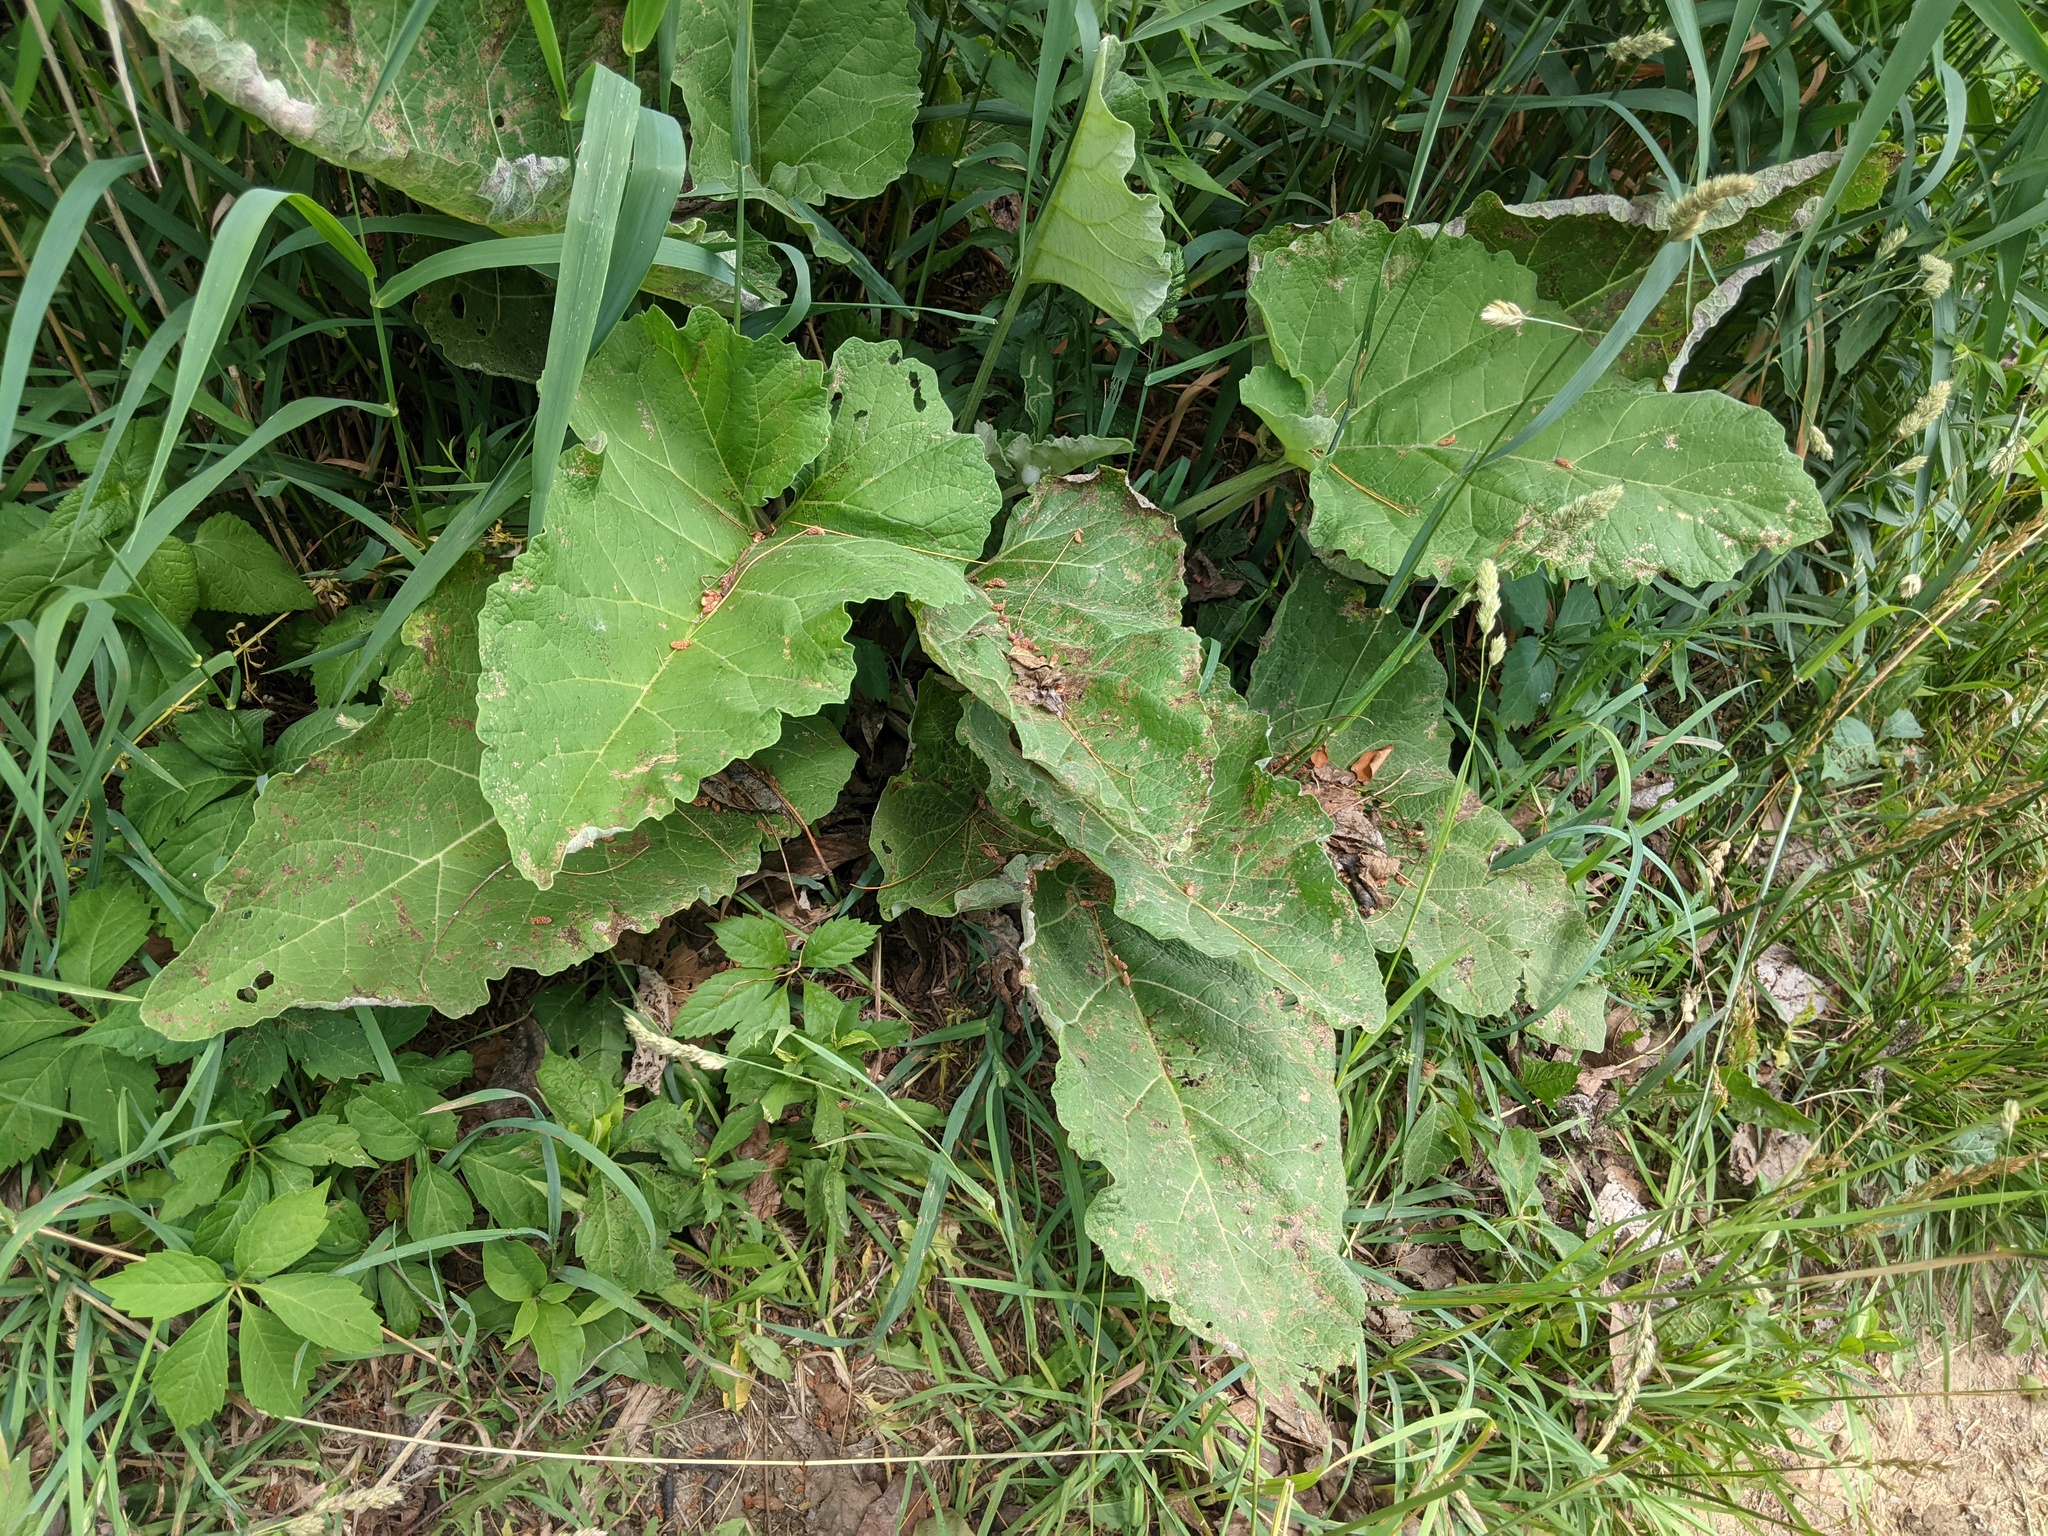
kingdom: Plantae
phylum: Tracheophyta
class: Magnoliopsida
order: Asterales
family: Asteraceae
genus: Arctium
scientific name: Arctium
